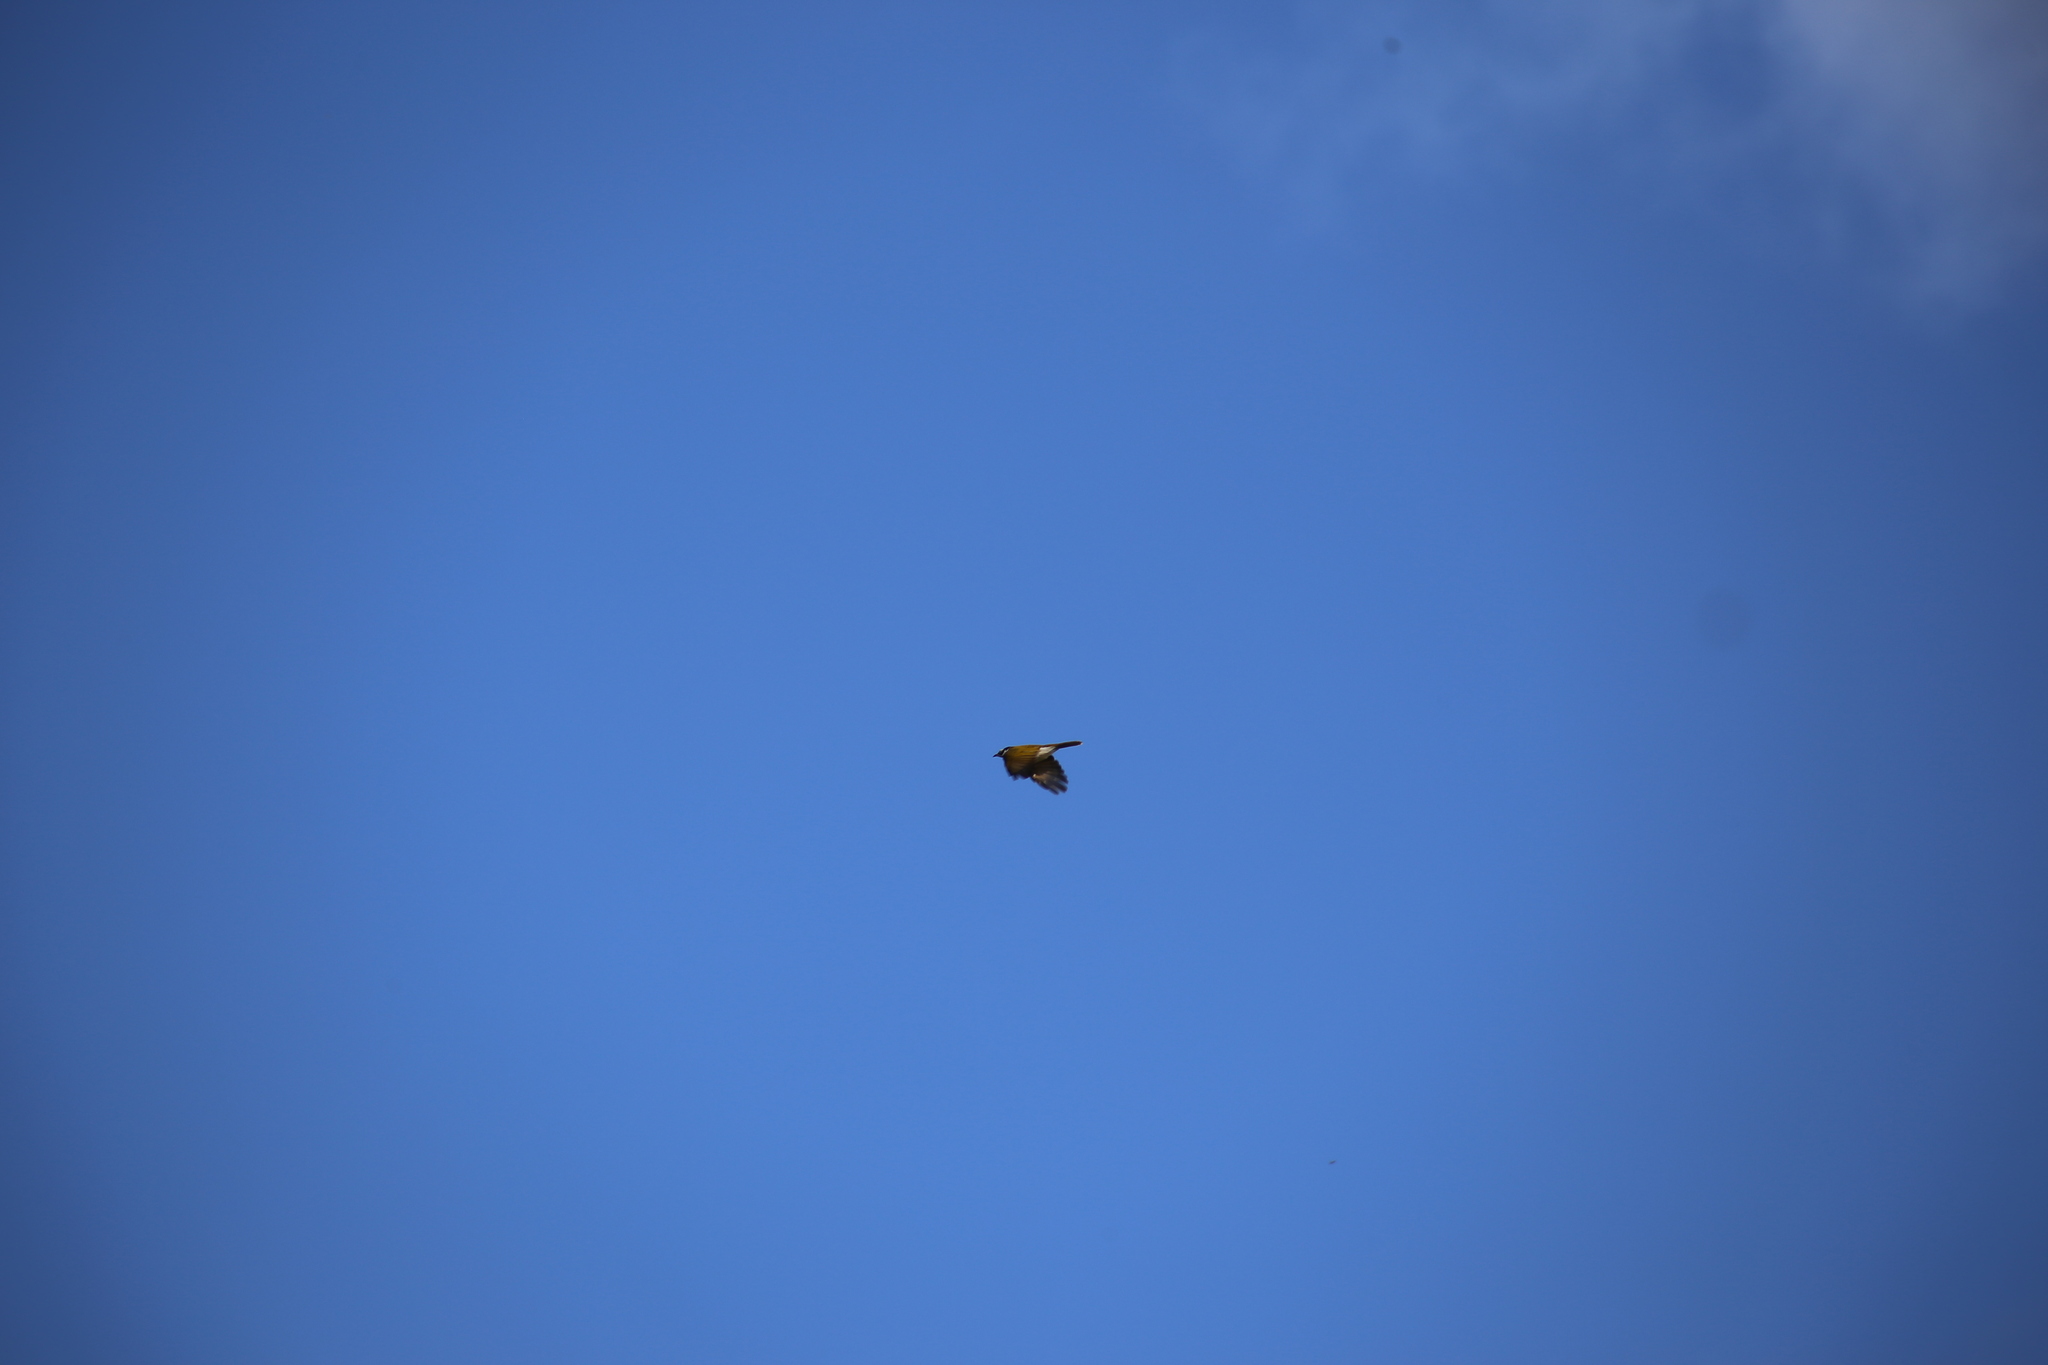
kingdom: Animalia
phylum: Chordata
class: Aves
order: Passeriformes
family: Meliphagidae
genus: Entomyzon
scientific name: Entomyzon cyanotis
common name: Blue-faced honeyeater
